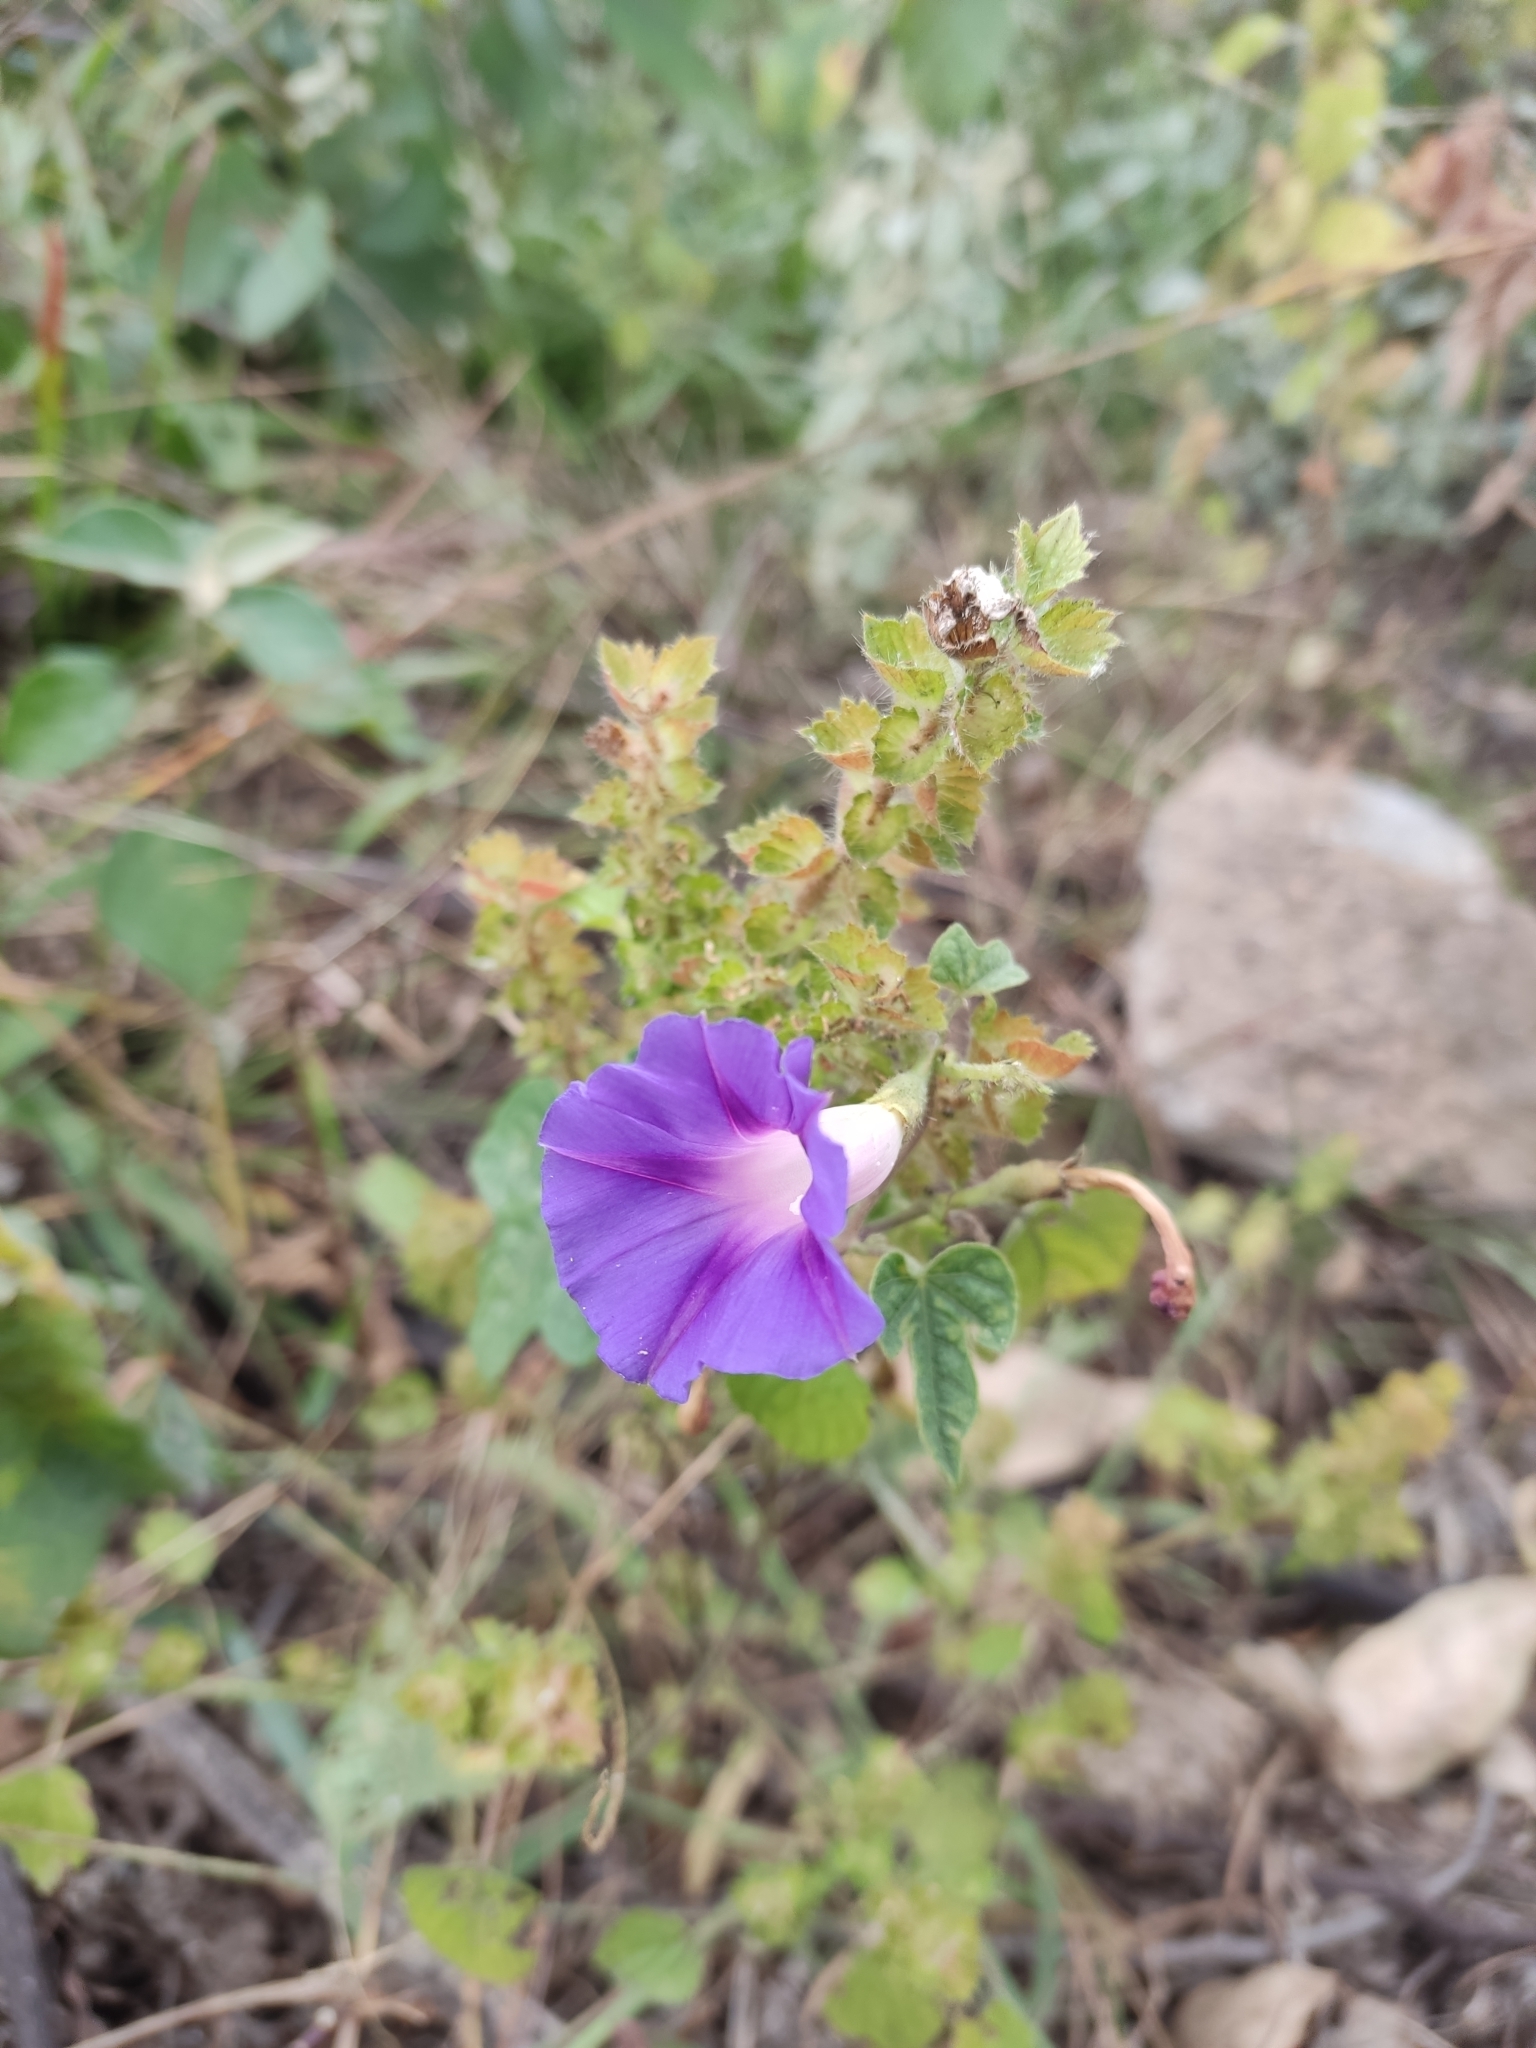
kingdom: Plantae
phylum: Tracheophyta
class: Magnoliopsida
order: Solanales
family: Convolvulaceae
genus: Ipomoea
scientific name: Ipomoea purpurea
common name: Common morning-glory
